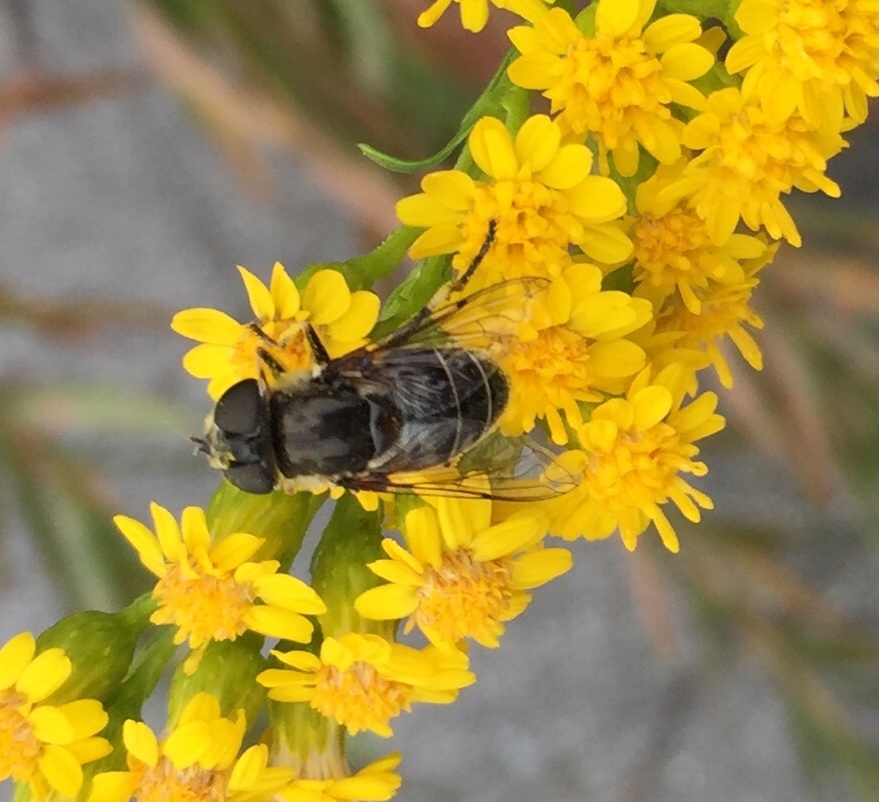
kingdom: Animalia
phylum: Arthropoda
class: Insecta
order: Diptera
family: Syrphidae
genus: Eristalis
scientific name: Eristalis dimidiata
